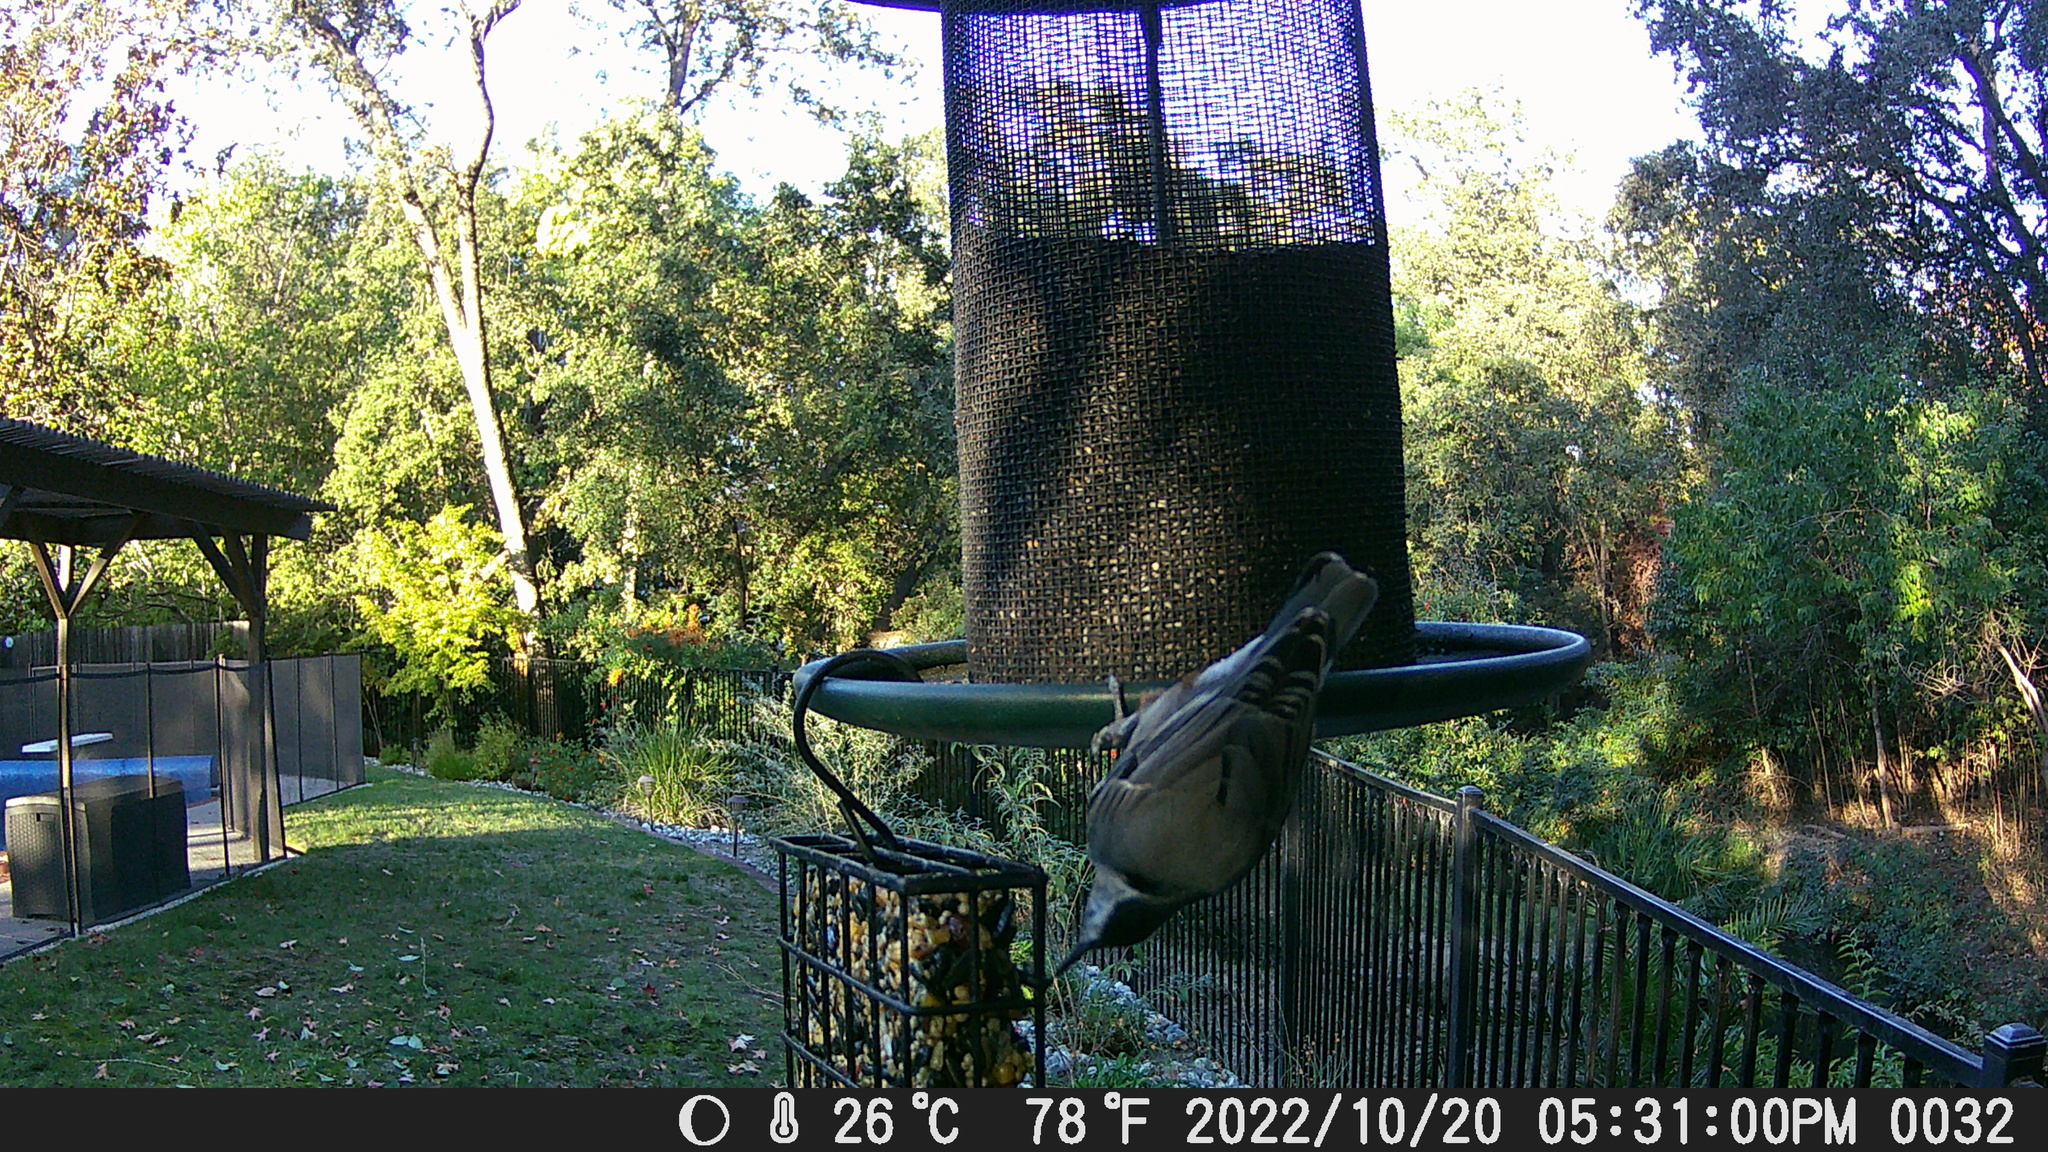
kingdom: Animalia
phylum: Chordata
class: Aves
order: Passeriformes
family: Sittidae
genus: Sitta
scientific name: Sitta carolinensis
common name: White-breasted nuthatch
